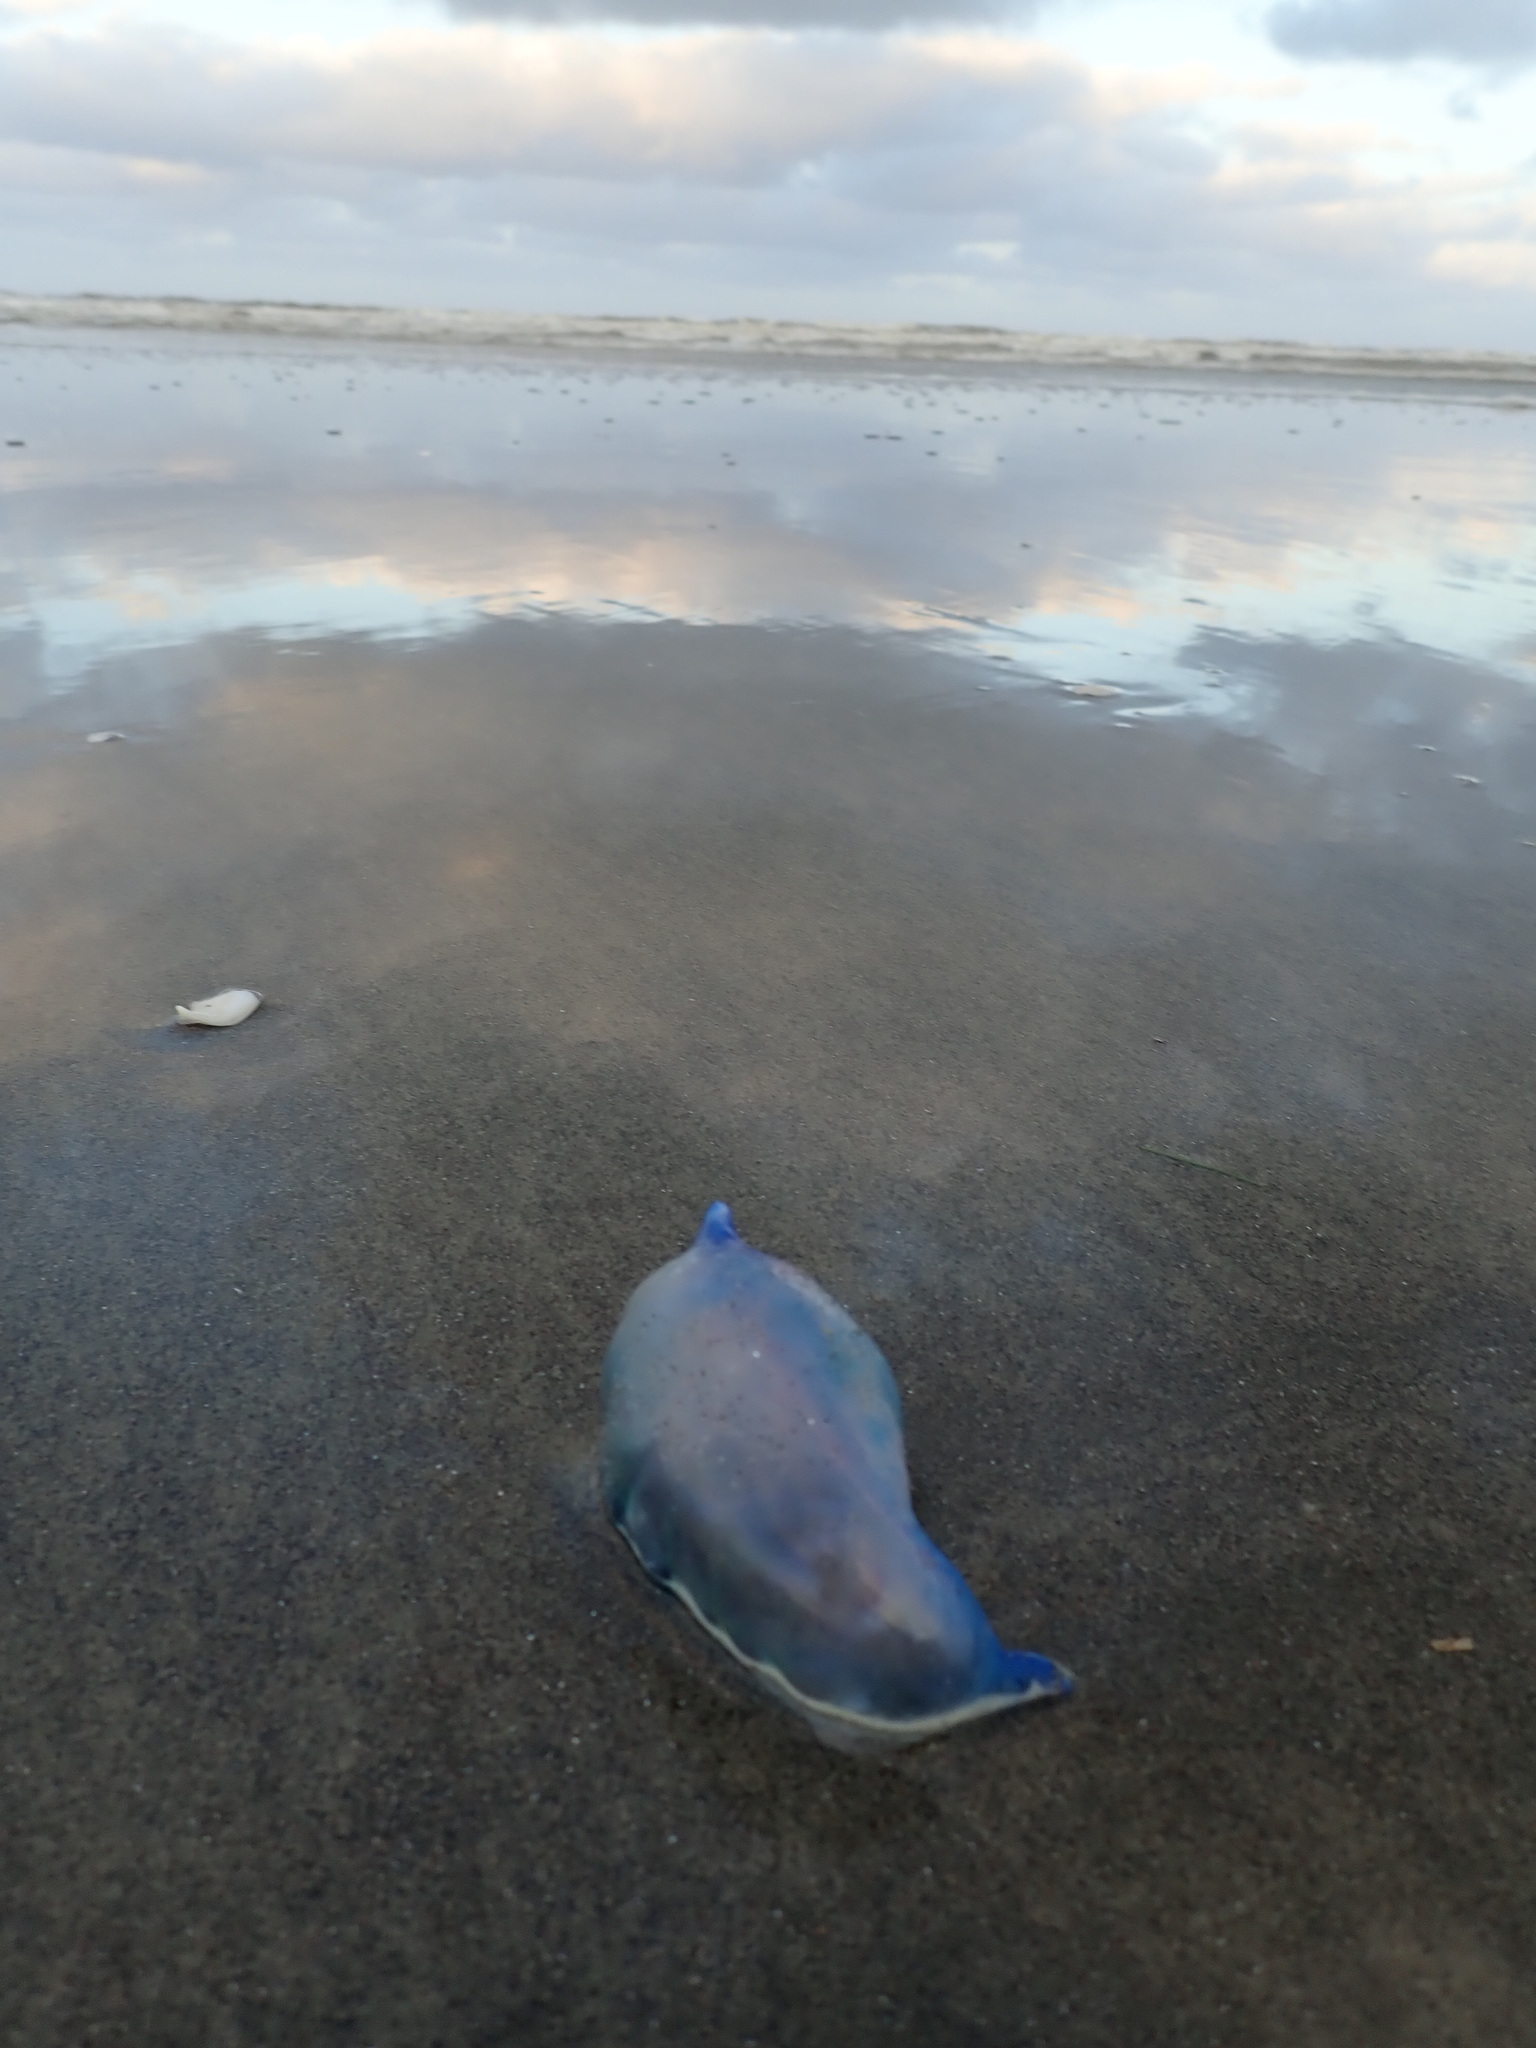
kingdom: Animalia
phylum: Cnidaria
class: Hydrozoa
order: Siphonophorae
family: Physaliidae
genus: Physalia
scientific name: Physalia physalis
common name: Portuguese man-of-war
